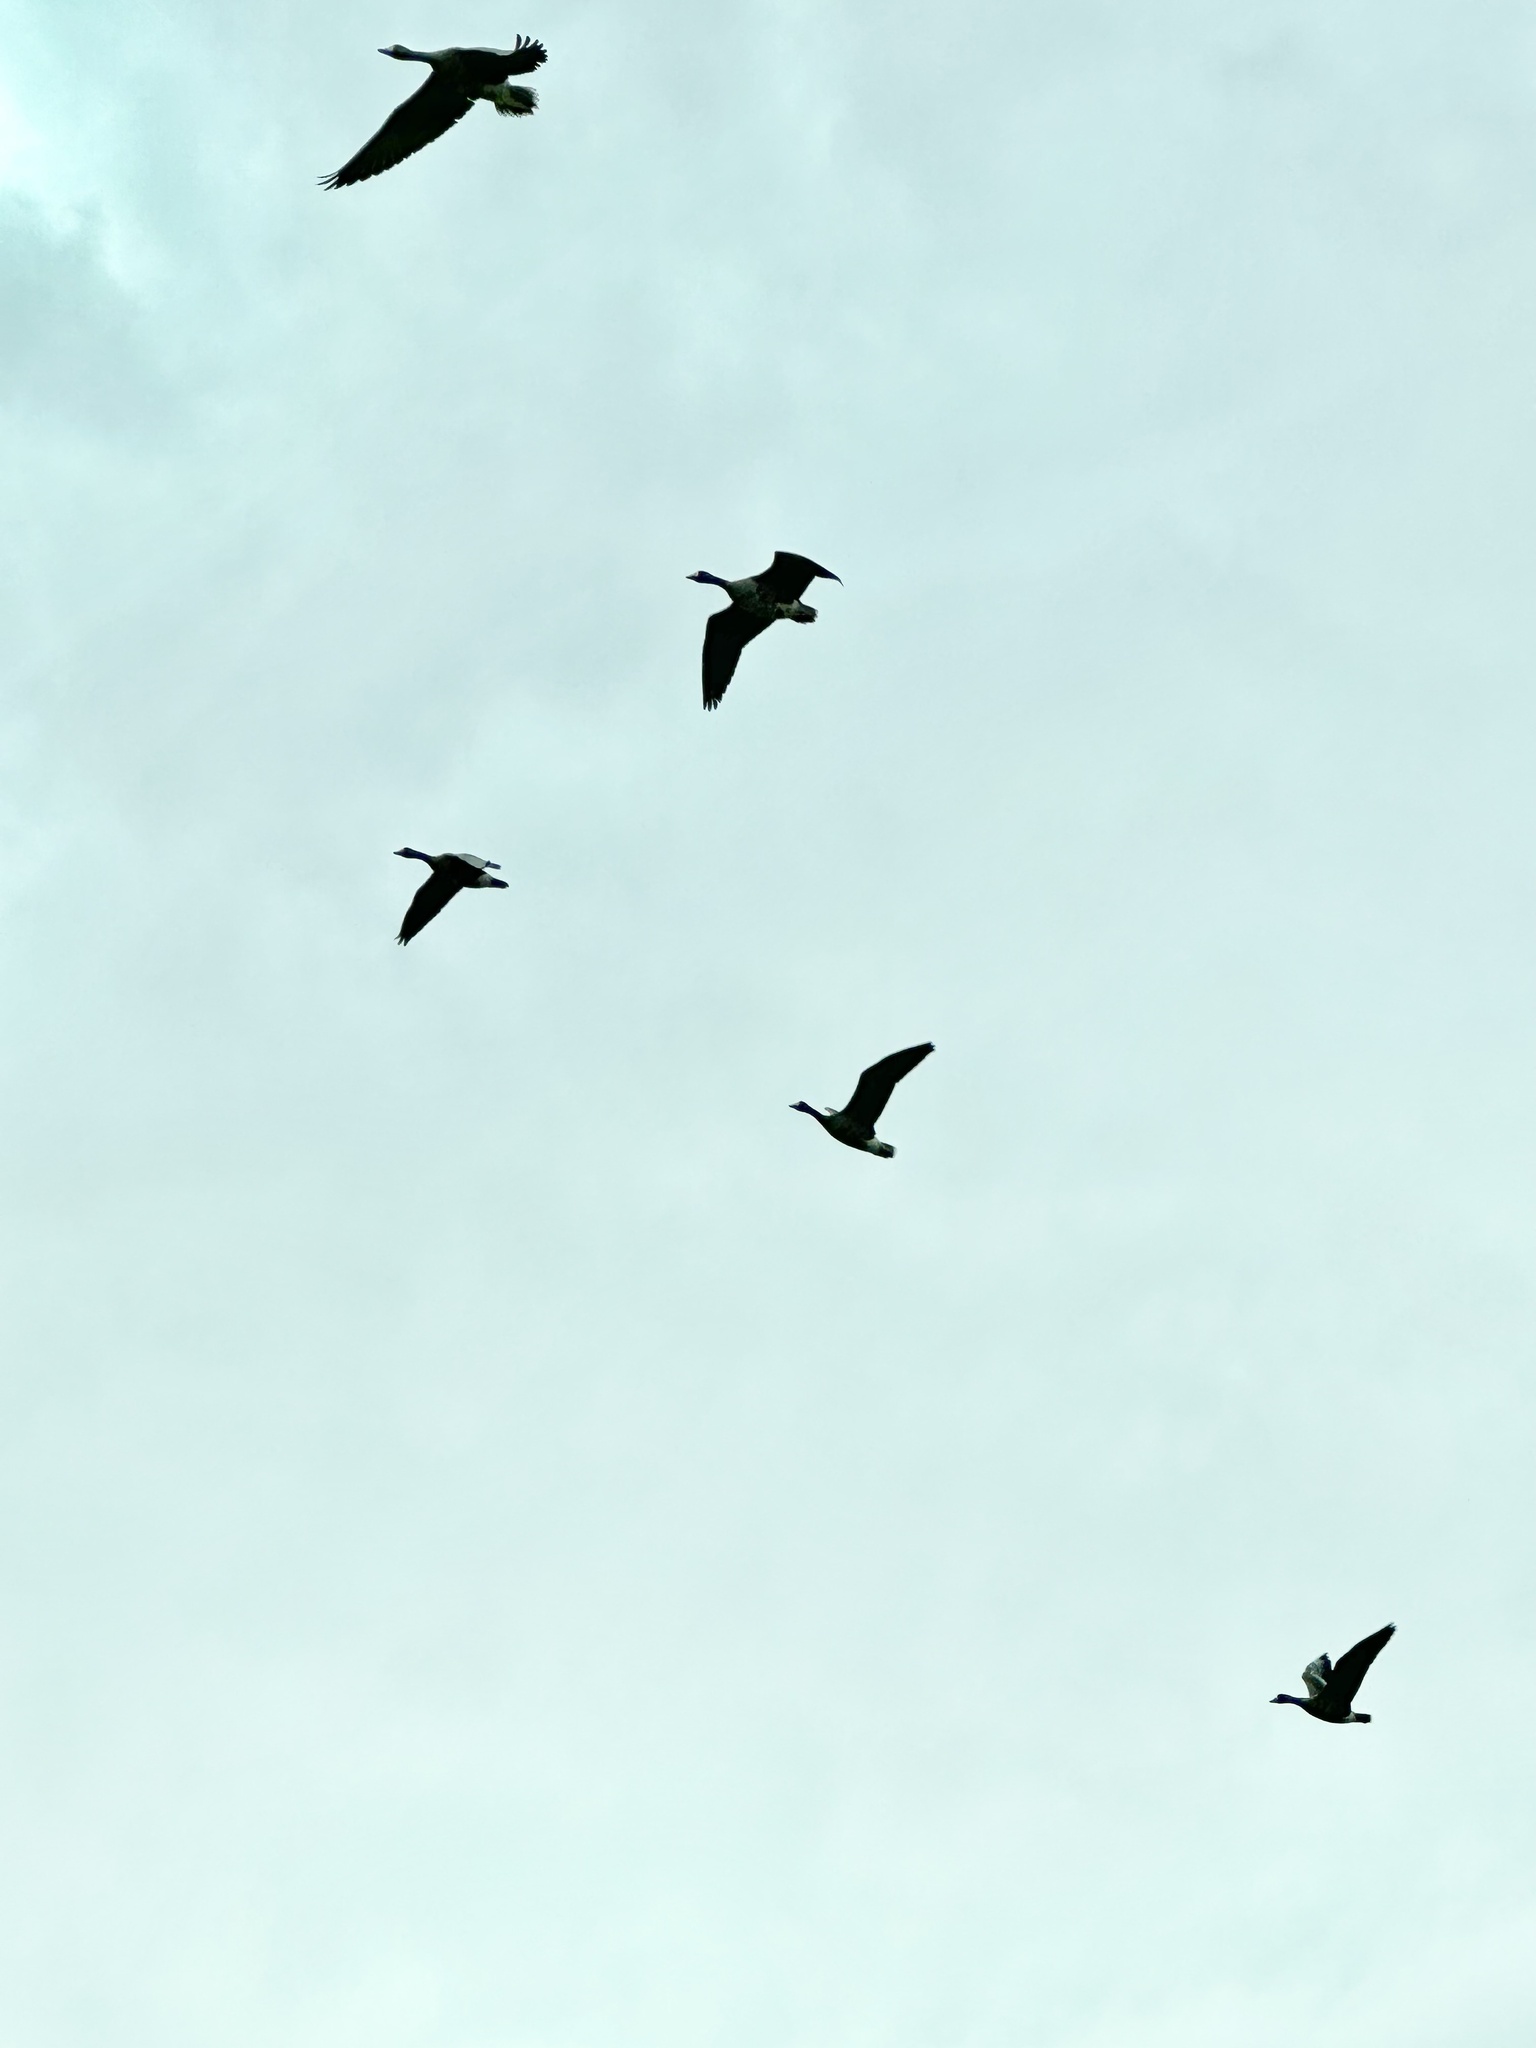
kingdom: Animalia
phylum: Chordata
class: Aves
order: Anseriformes
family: Anatidae
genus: Anser
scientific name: Anser albifrons
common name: Greater white-fronted goose
